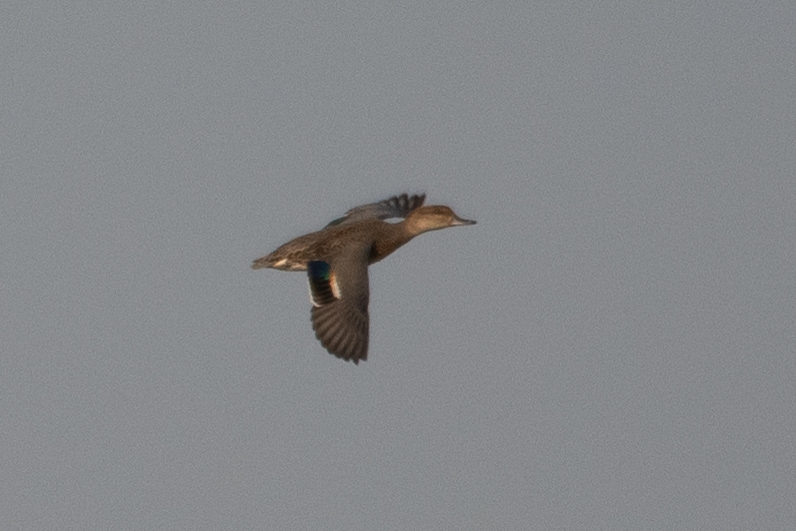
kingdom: Animalia
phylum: Chordata
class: Aves
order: Anseriformes
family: Anatidae
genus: Anas
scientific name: Anas crecca
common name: Eurasian teal
